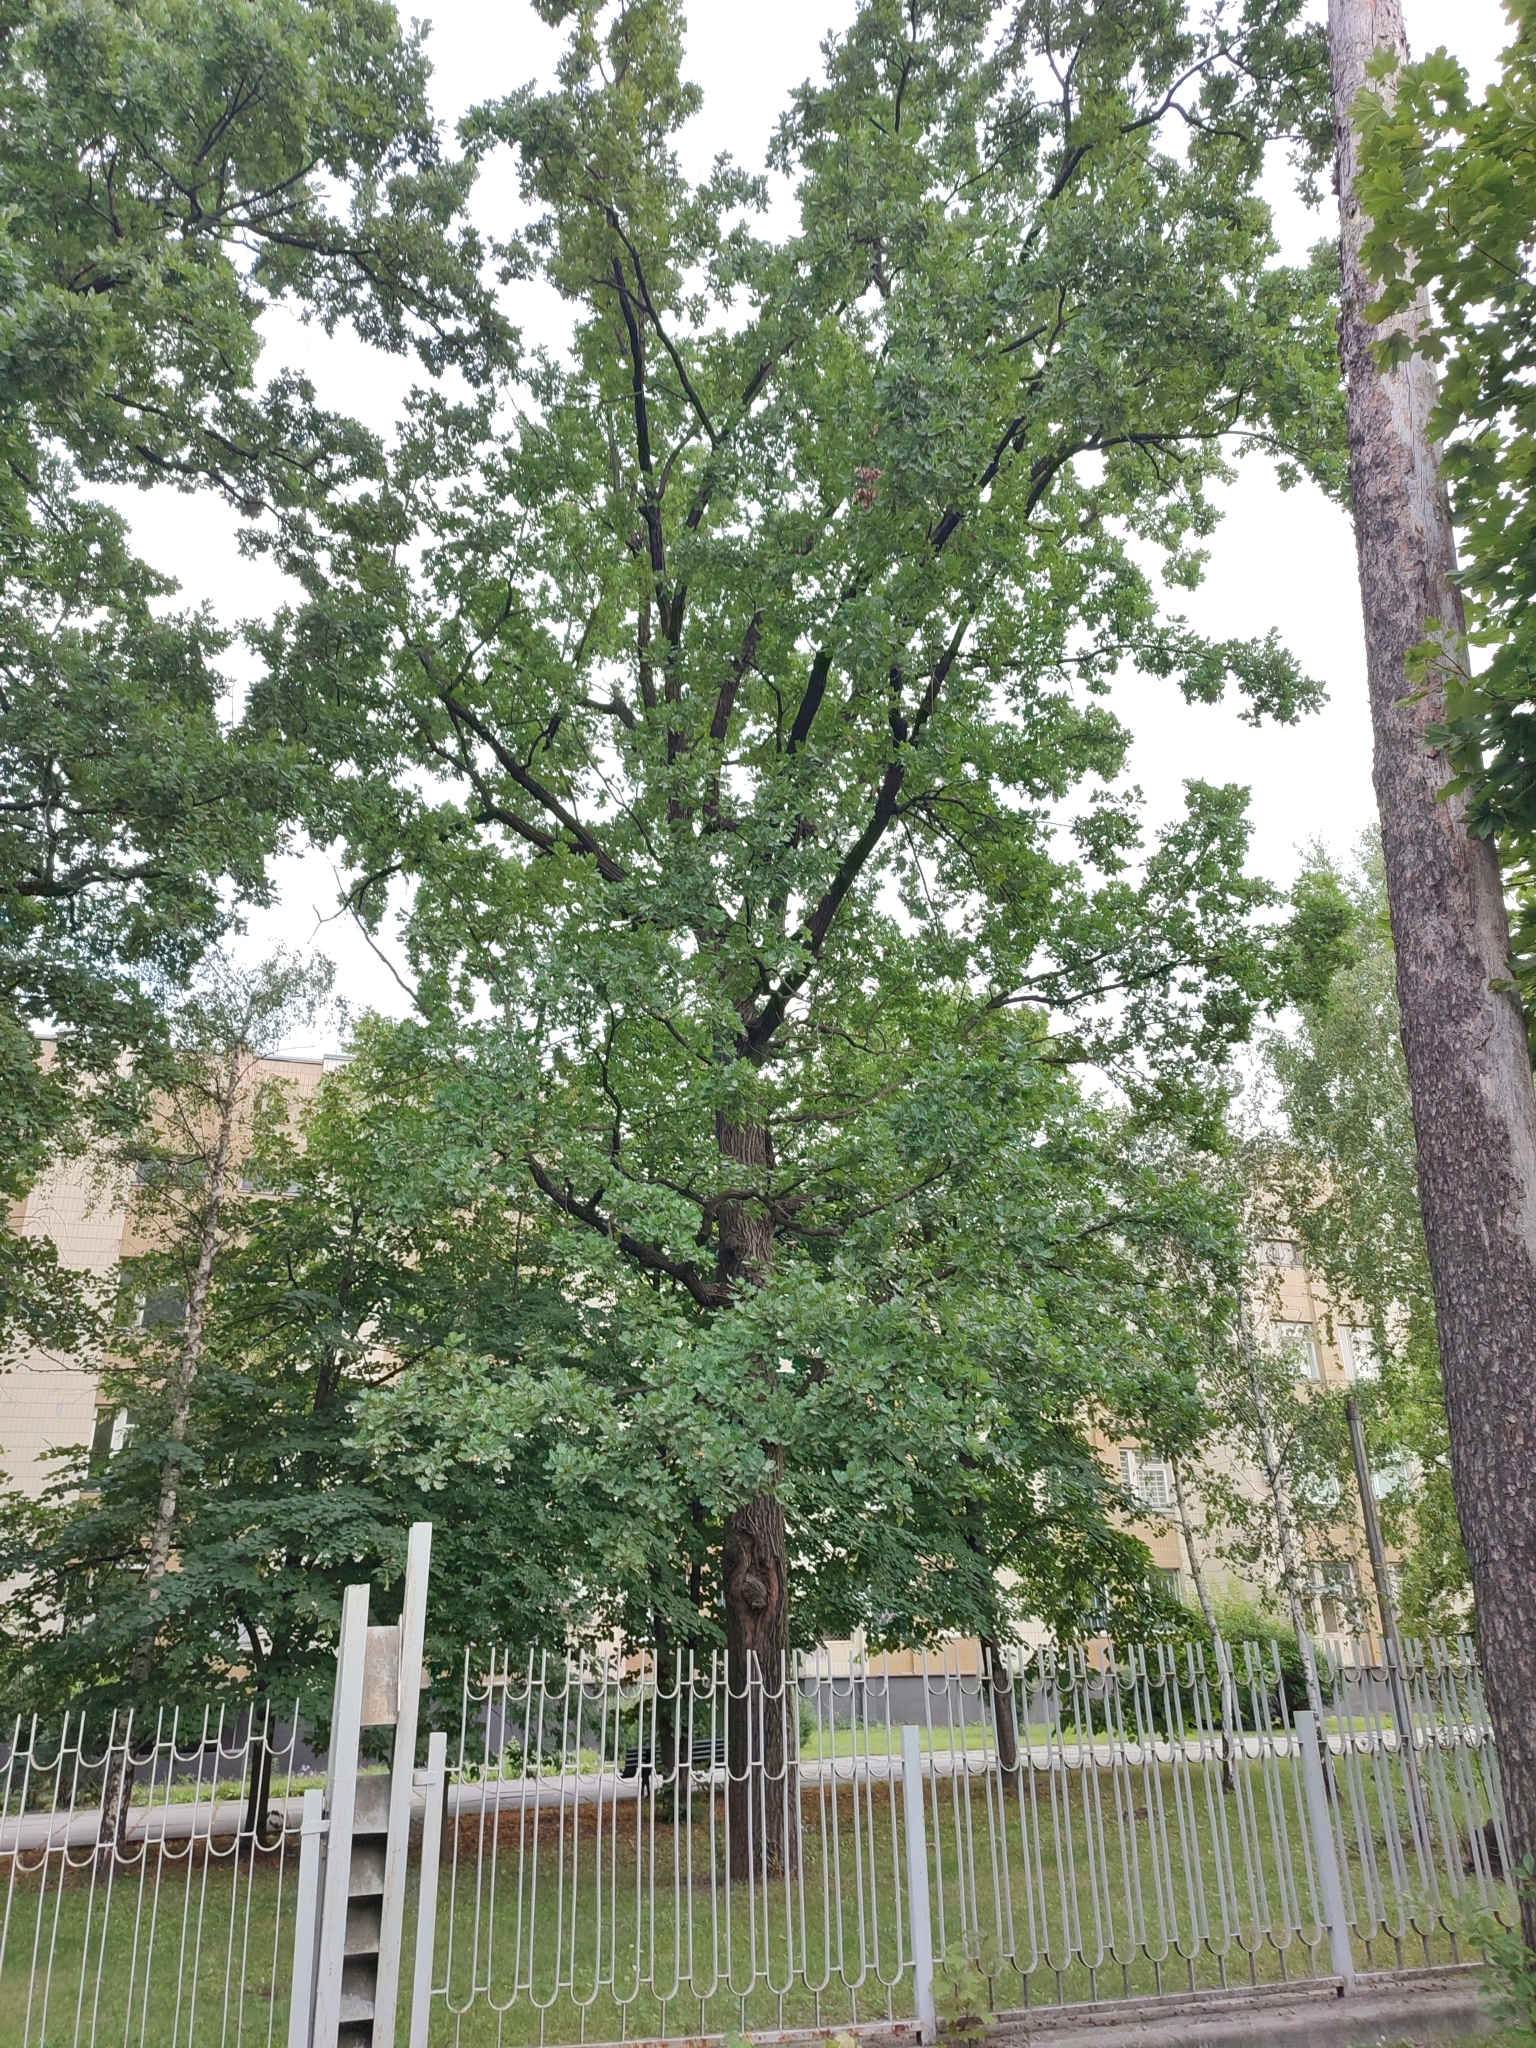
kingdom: Plantae
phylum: Tracheophyta
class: Magnoliopsida
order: Fagales
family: Fagaceae
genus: Quercus
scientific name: Quercus robur
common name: Pedunculate oak
